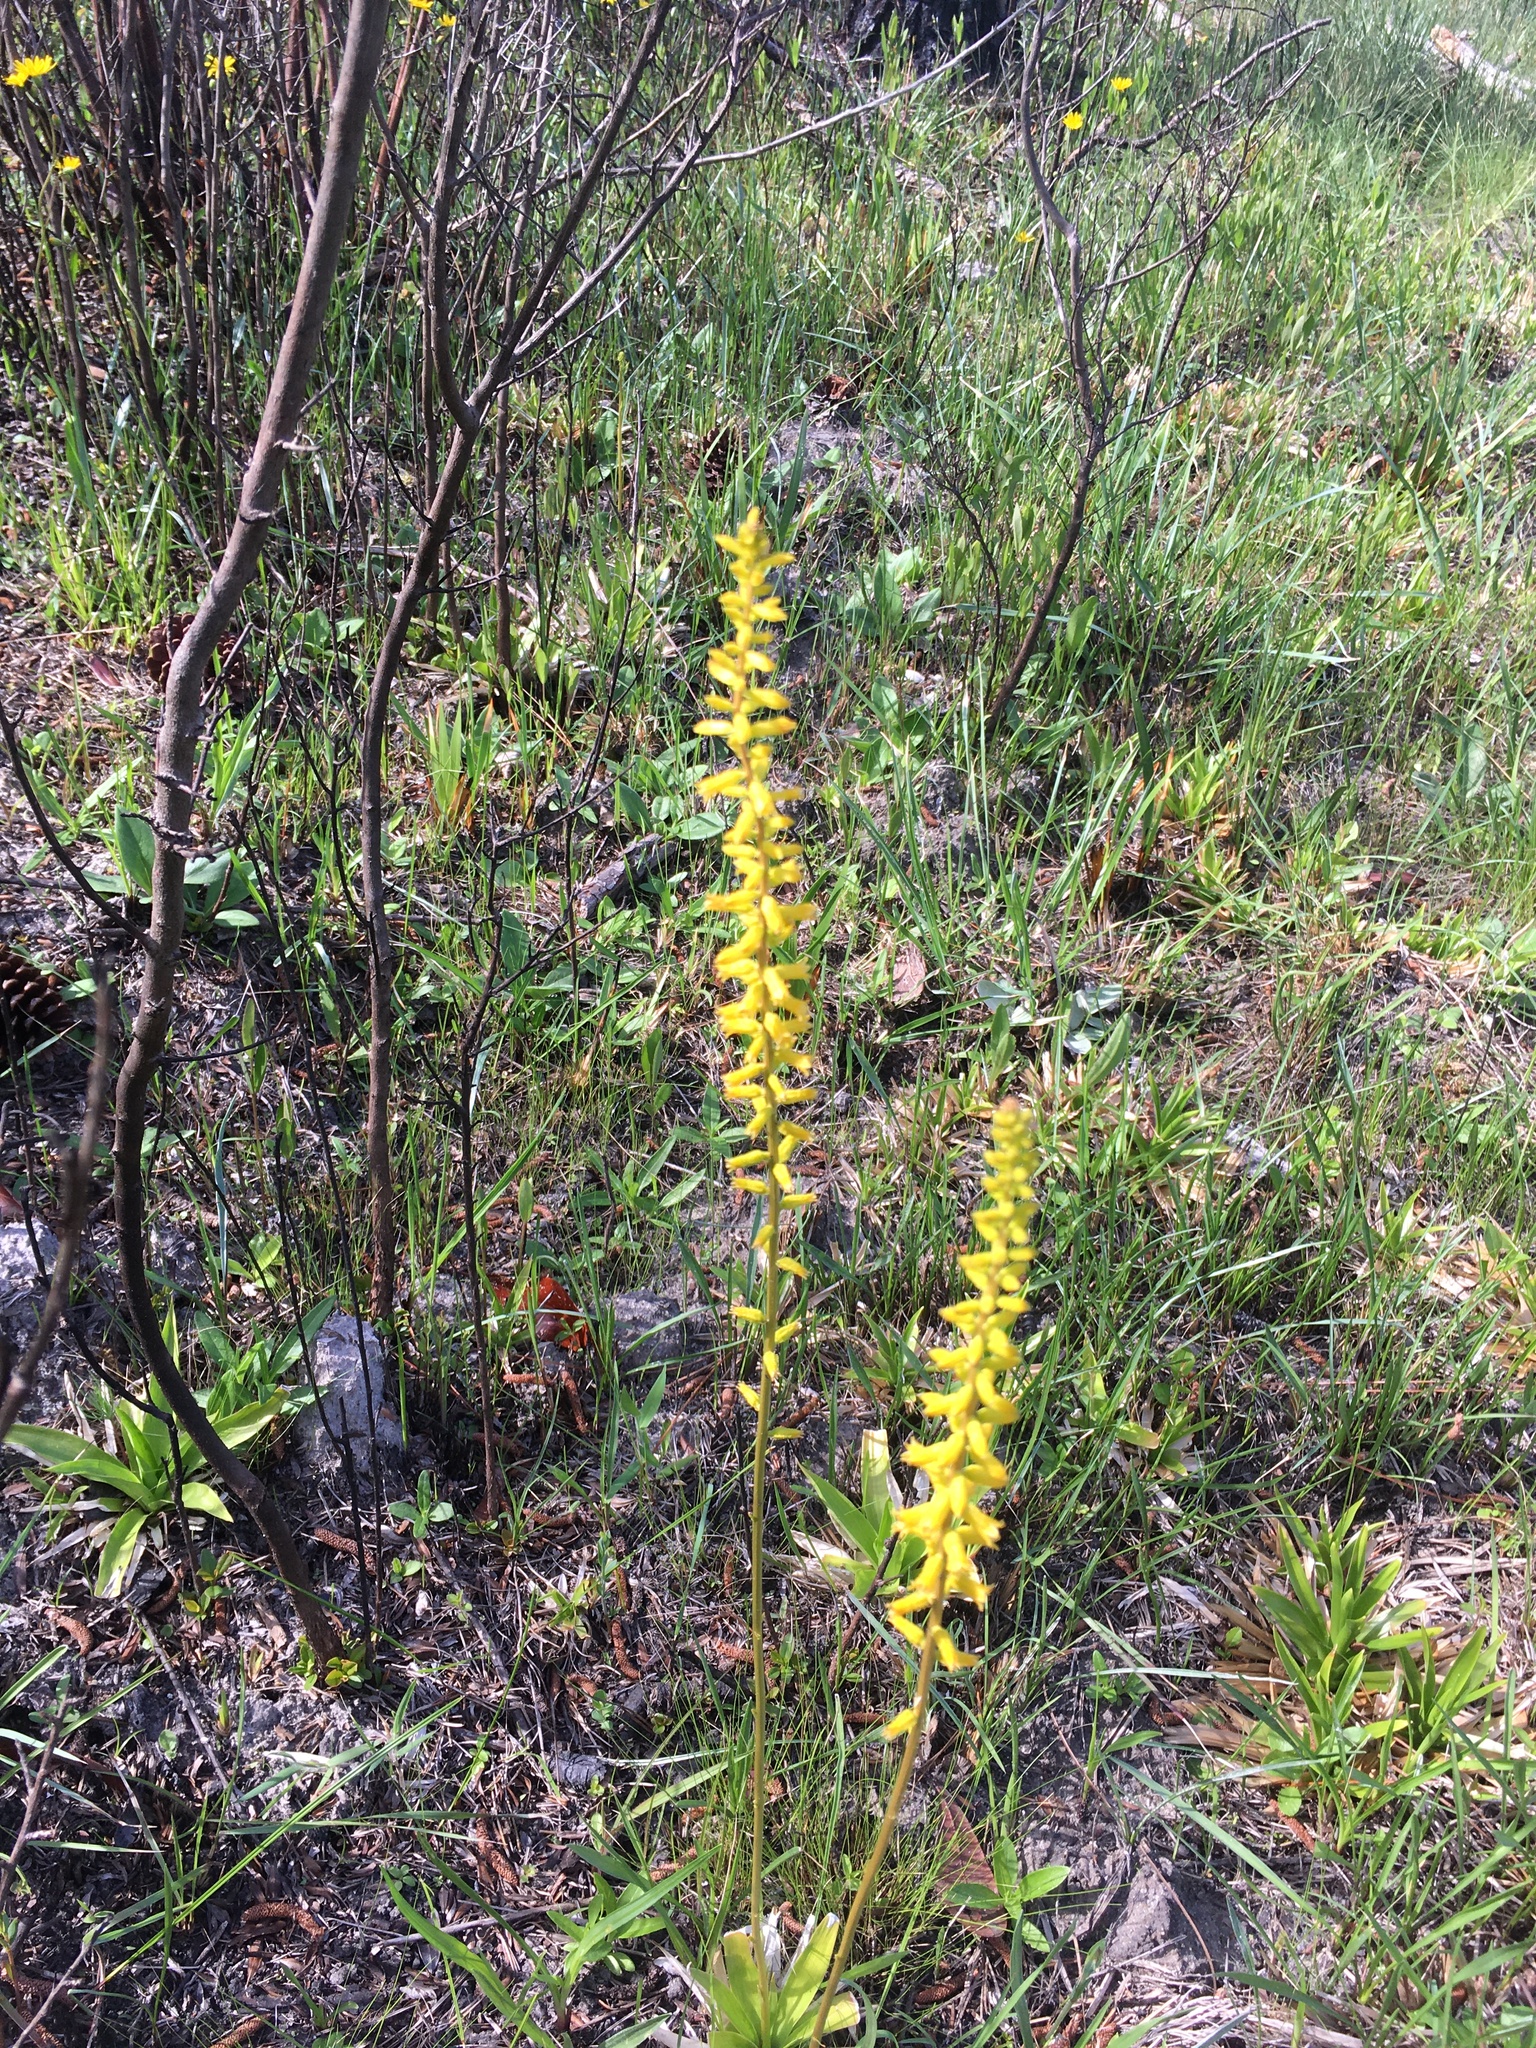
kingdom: Plantae
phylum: Tracheophyta
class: Liliopsida
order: Dioscoreales
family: Nartheciaceae
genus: Aletris
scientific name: Aletris lutea
